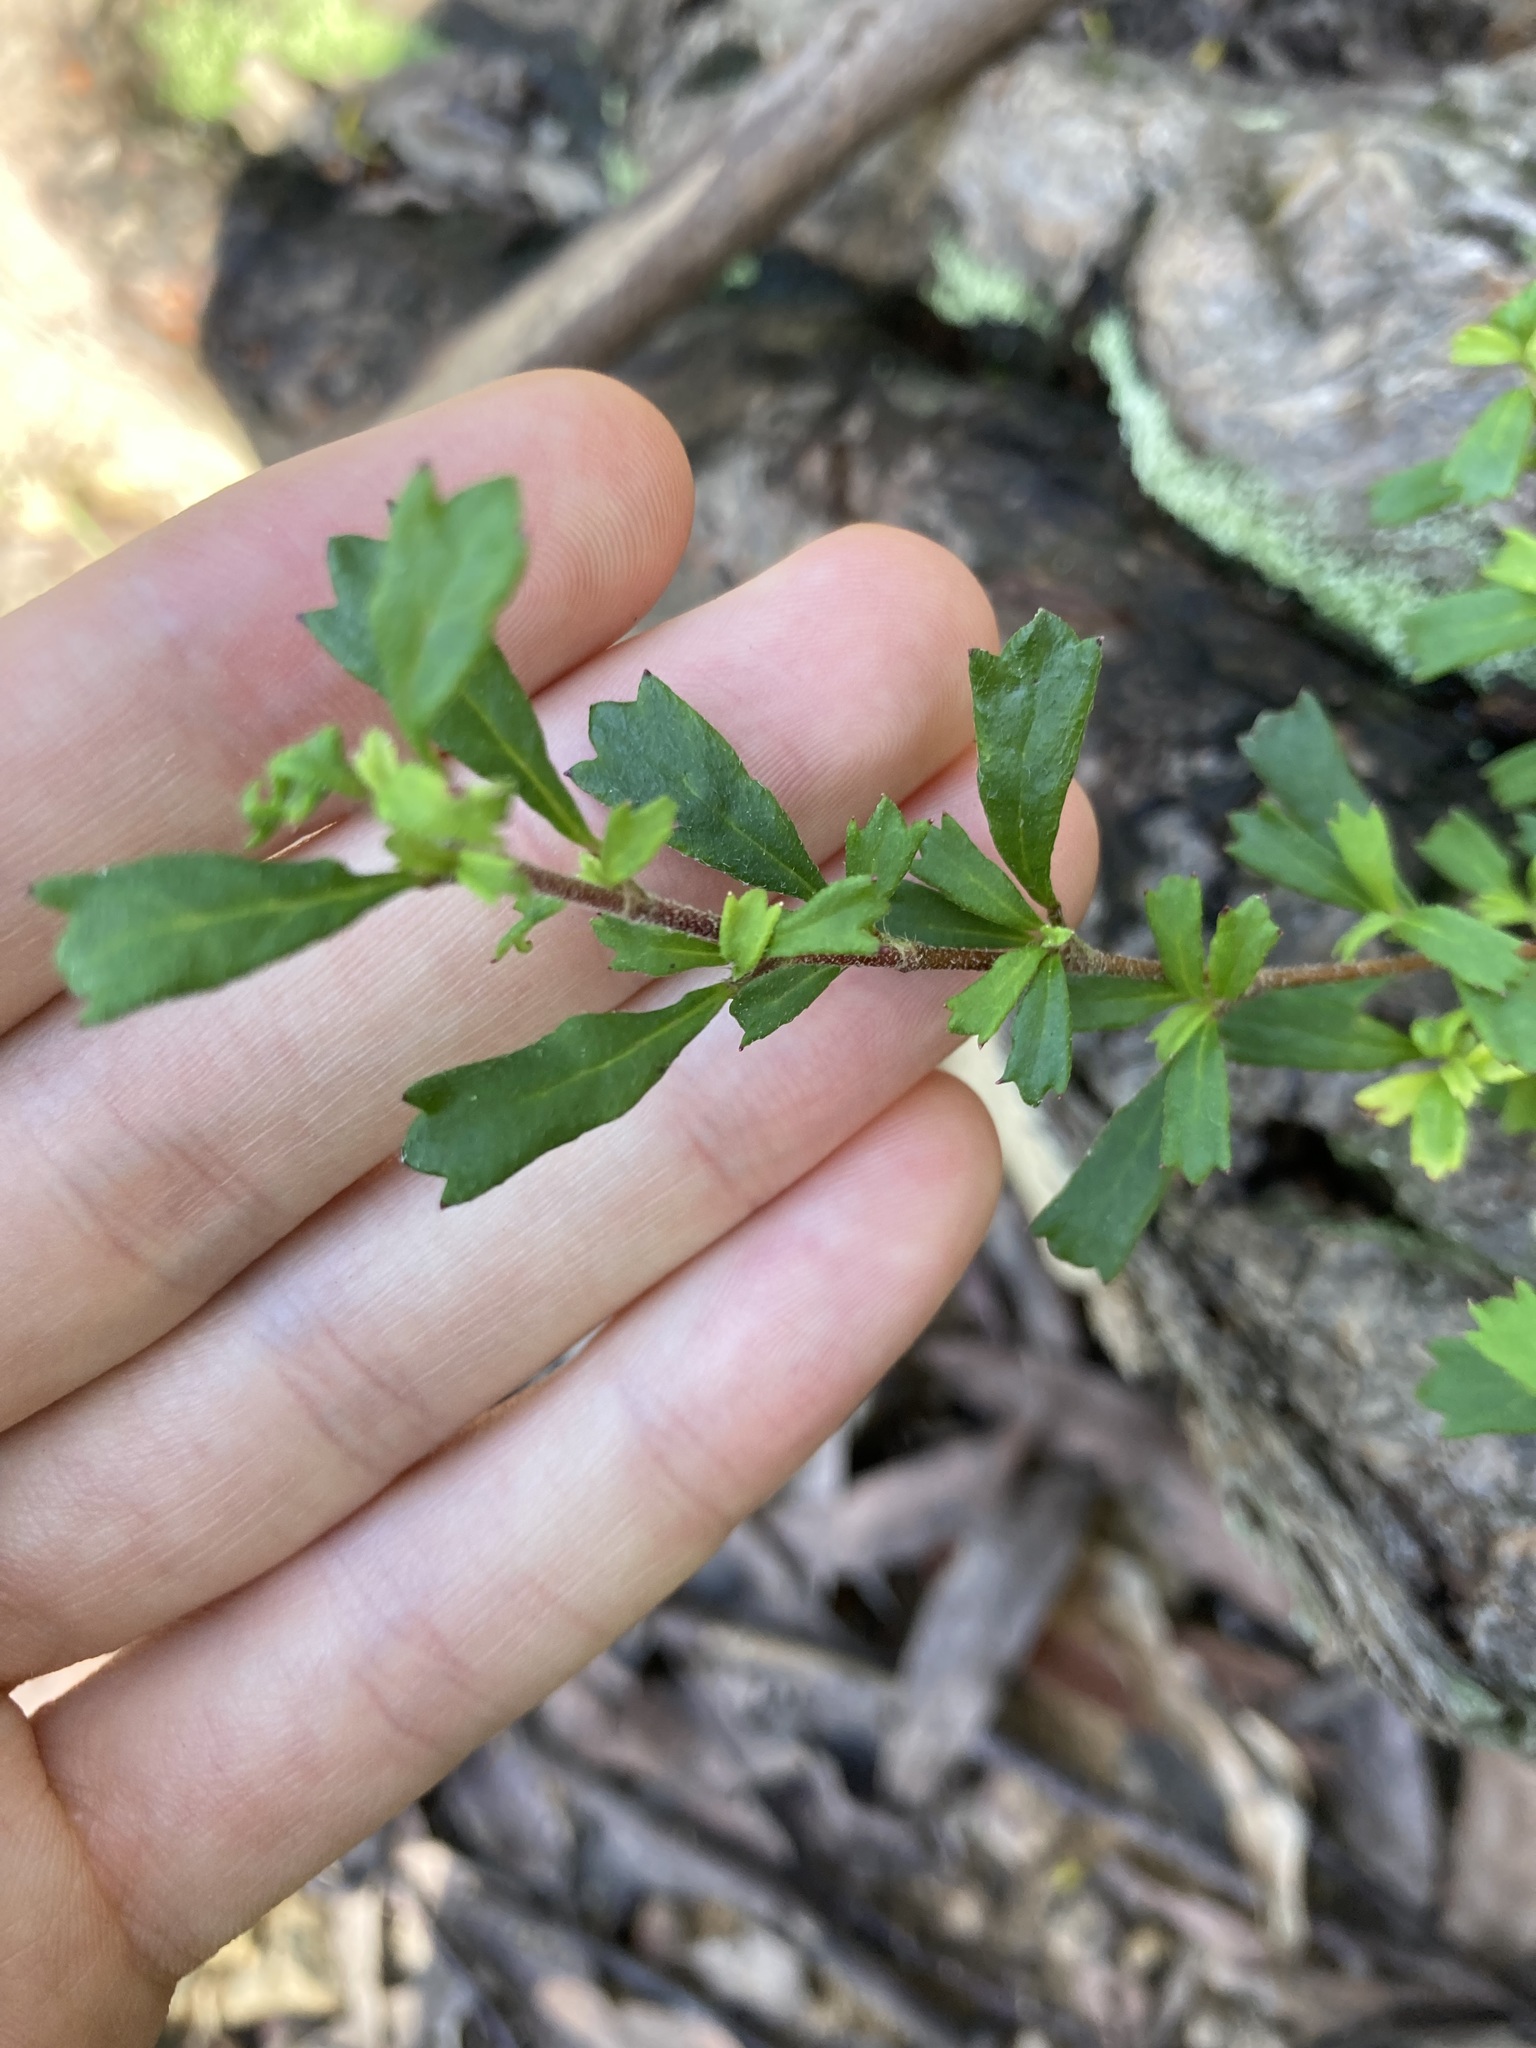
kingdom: Plantae
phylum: Tracheophyta
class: Magnoliopsida
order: Apiales
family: Apiaceae
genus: Xanthosia
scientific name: Xanthosia tridentata
